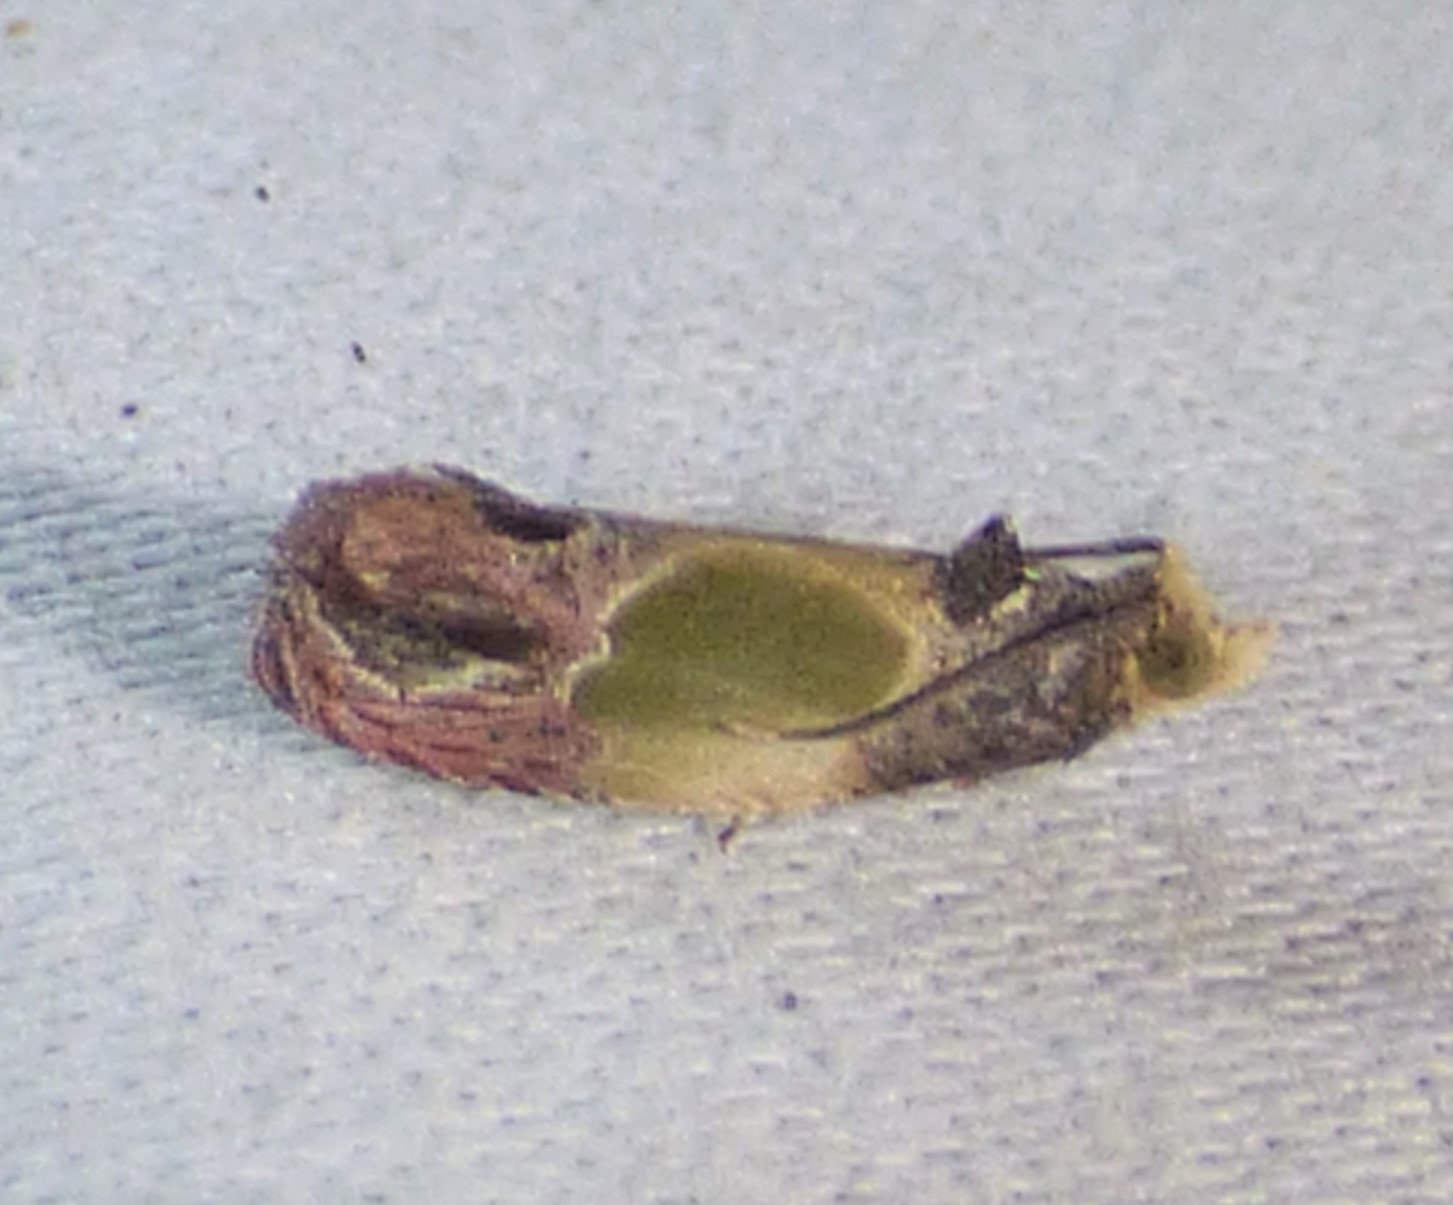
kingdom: Animalia
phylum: Arthropoda
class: Insecta
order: Lepidoptera
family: Tortricidae
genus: Eumarozia
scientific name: Eumarozia malachitana
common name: Sculptured moth
